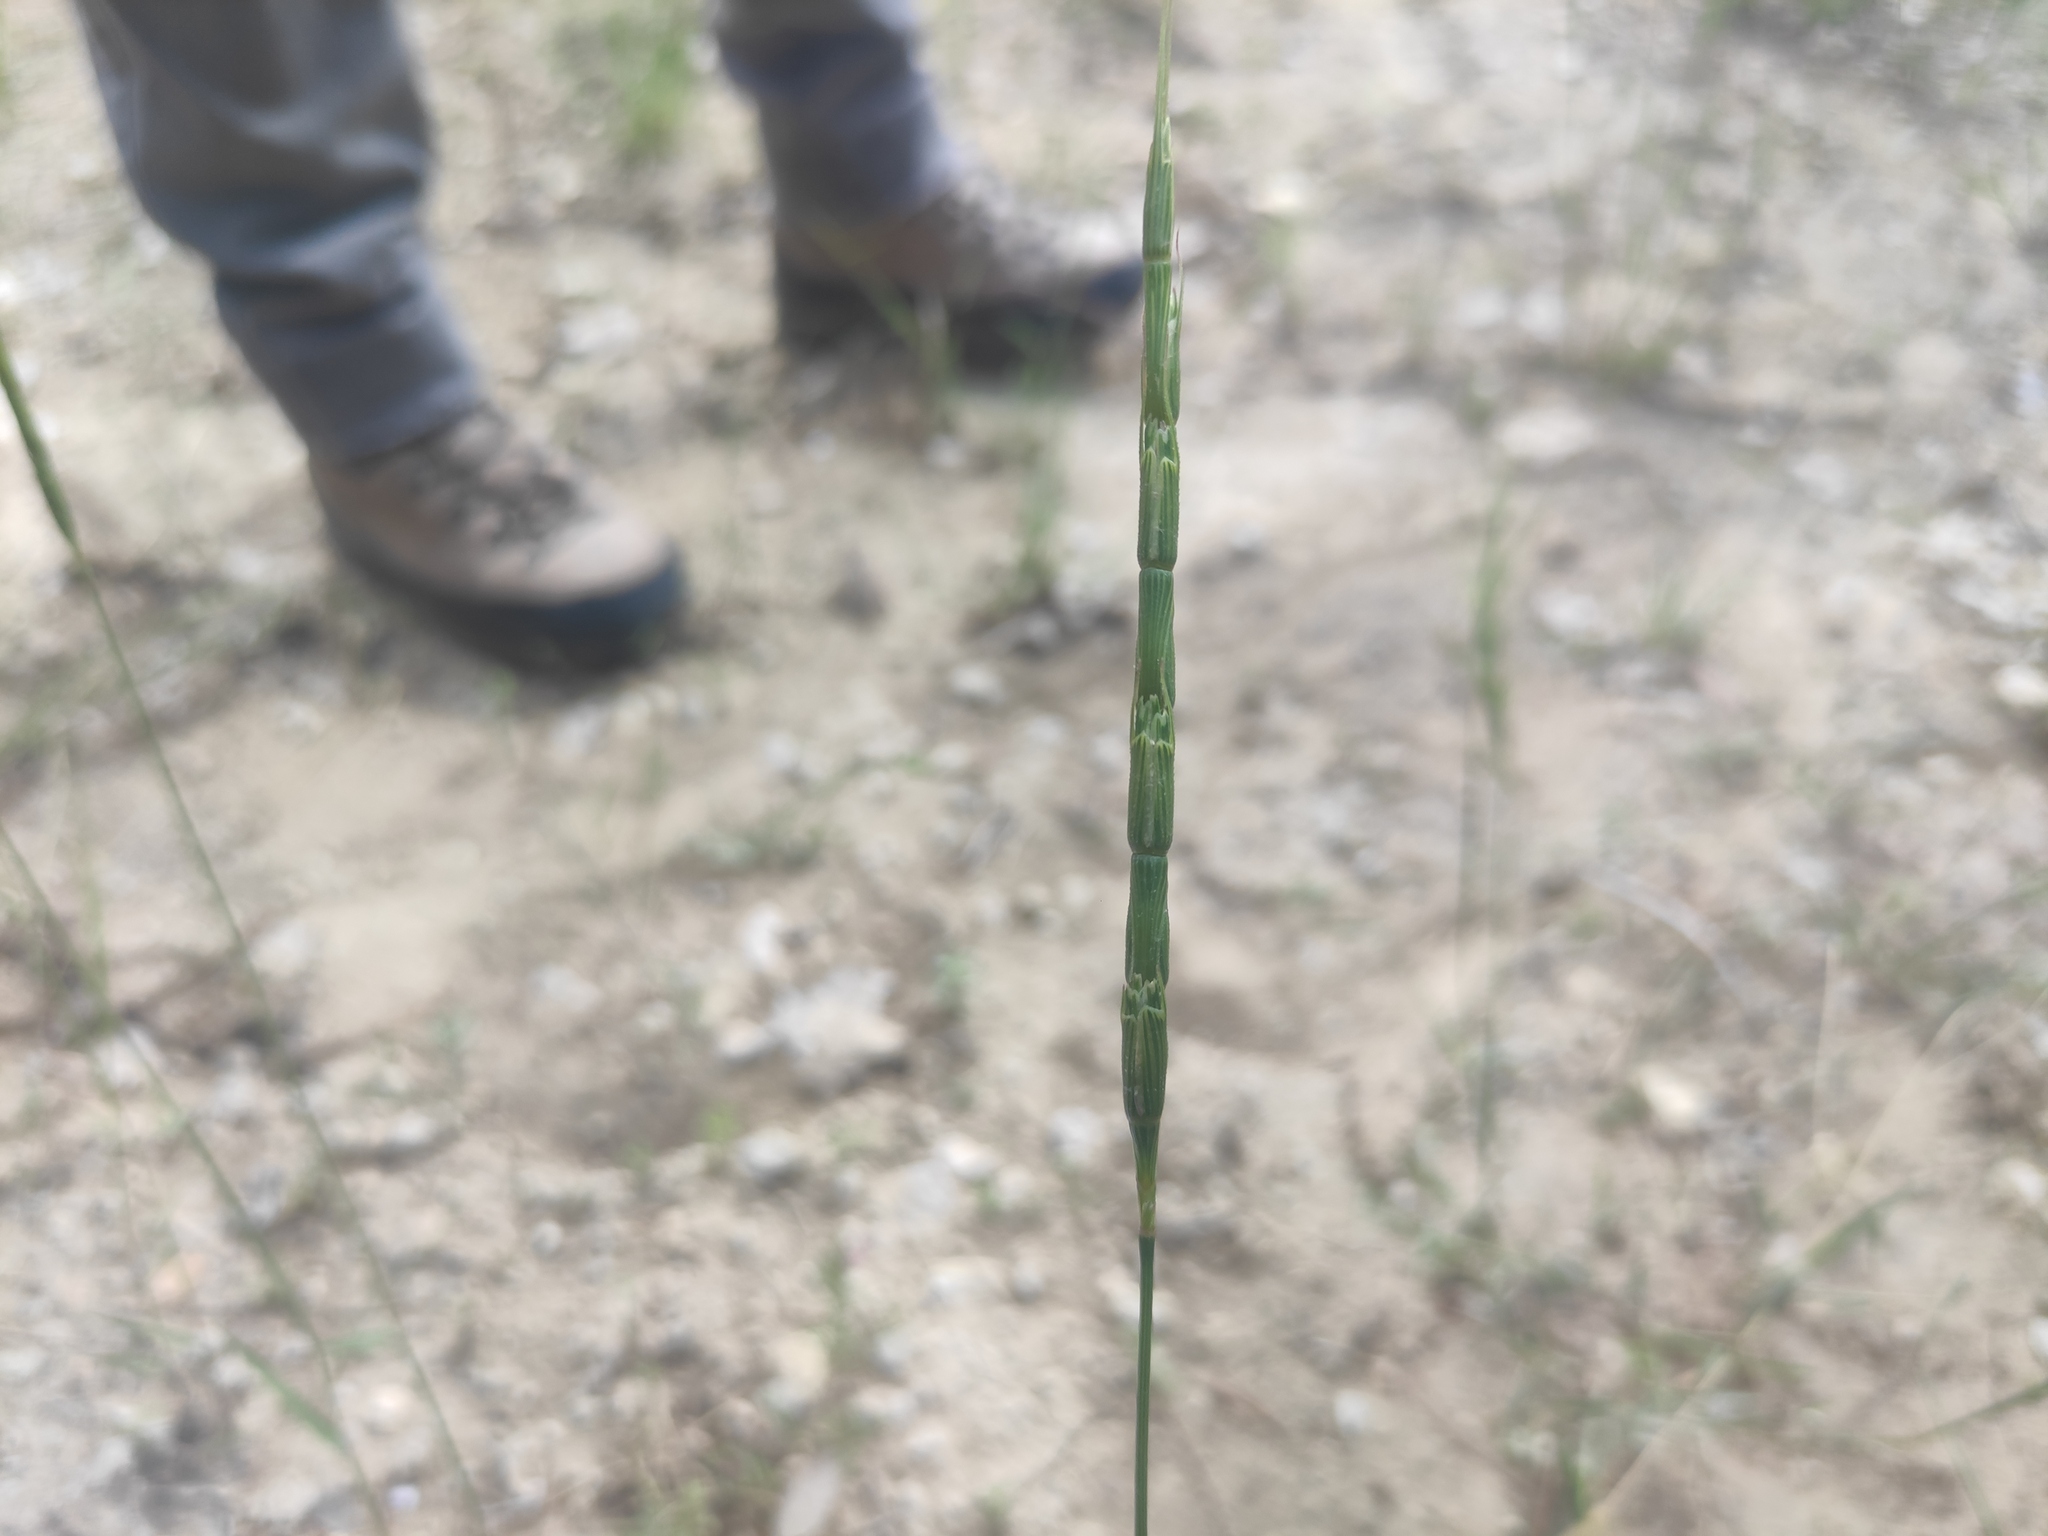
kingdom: Plantae
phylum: Tracheophyta
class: Liliopsida
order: Poales
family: Poaceae
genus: Aegilops
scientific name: Aegilops cylindrica
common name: Jointed goatgrass
